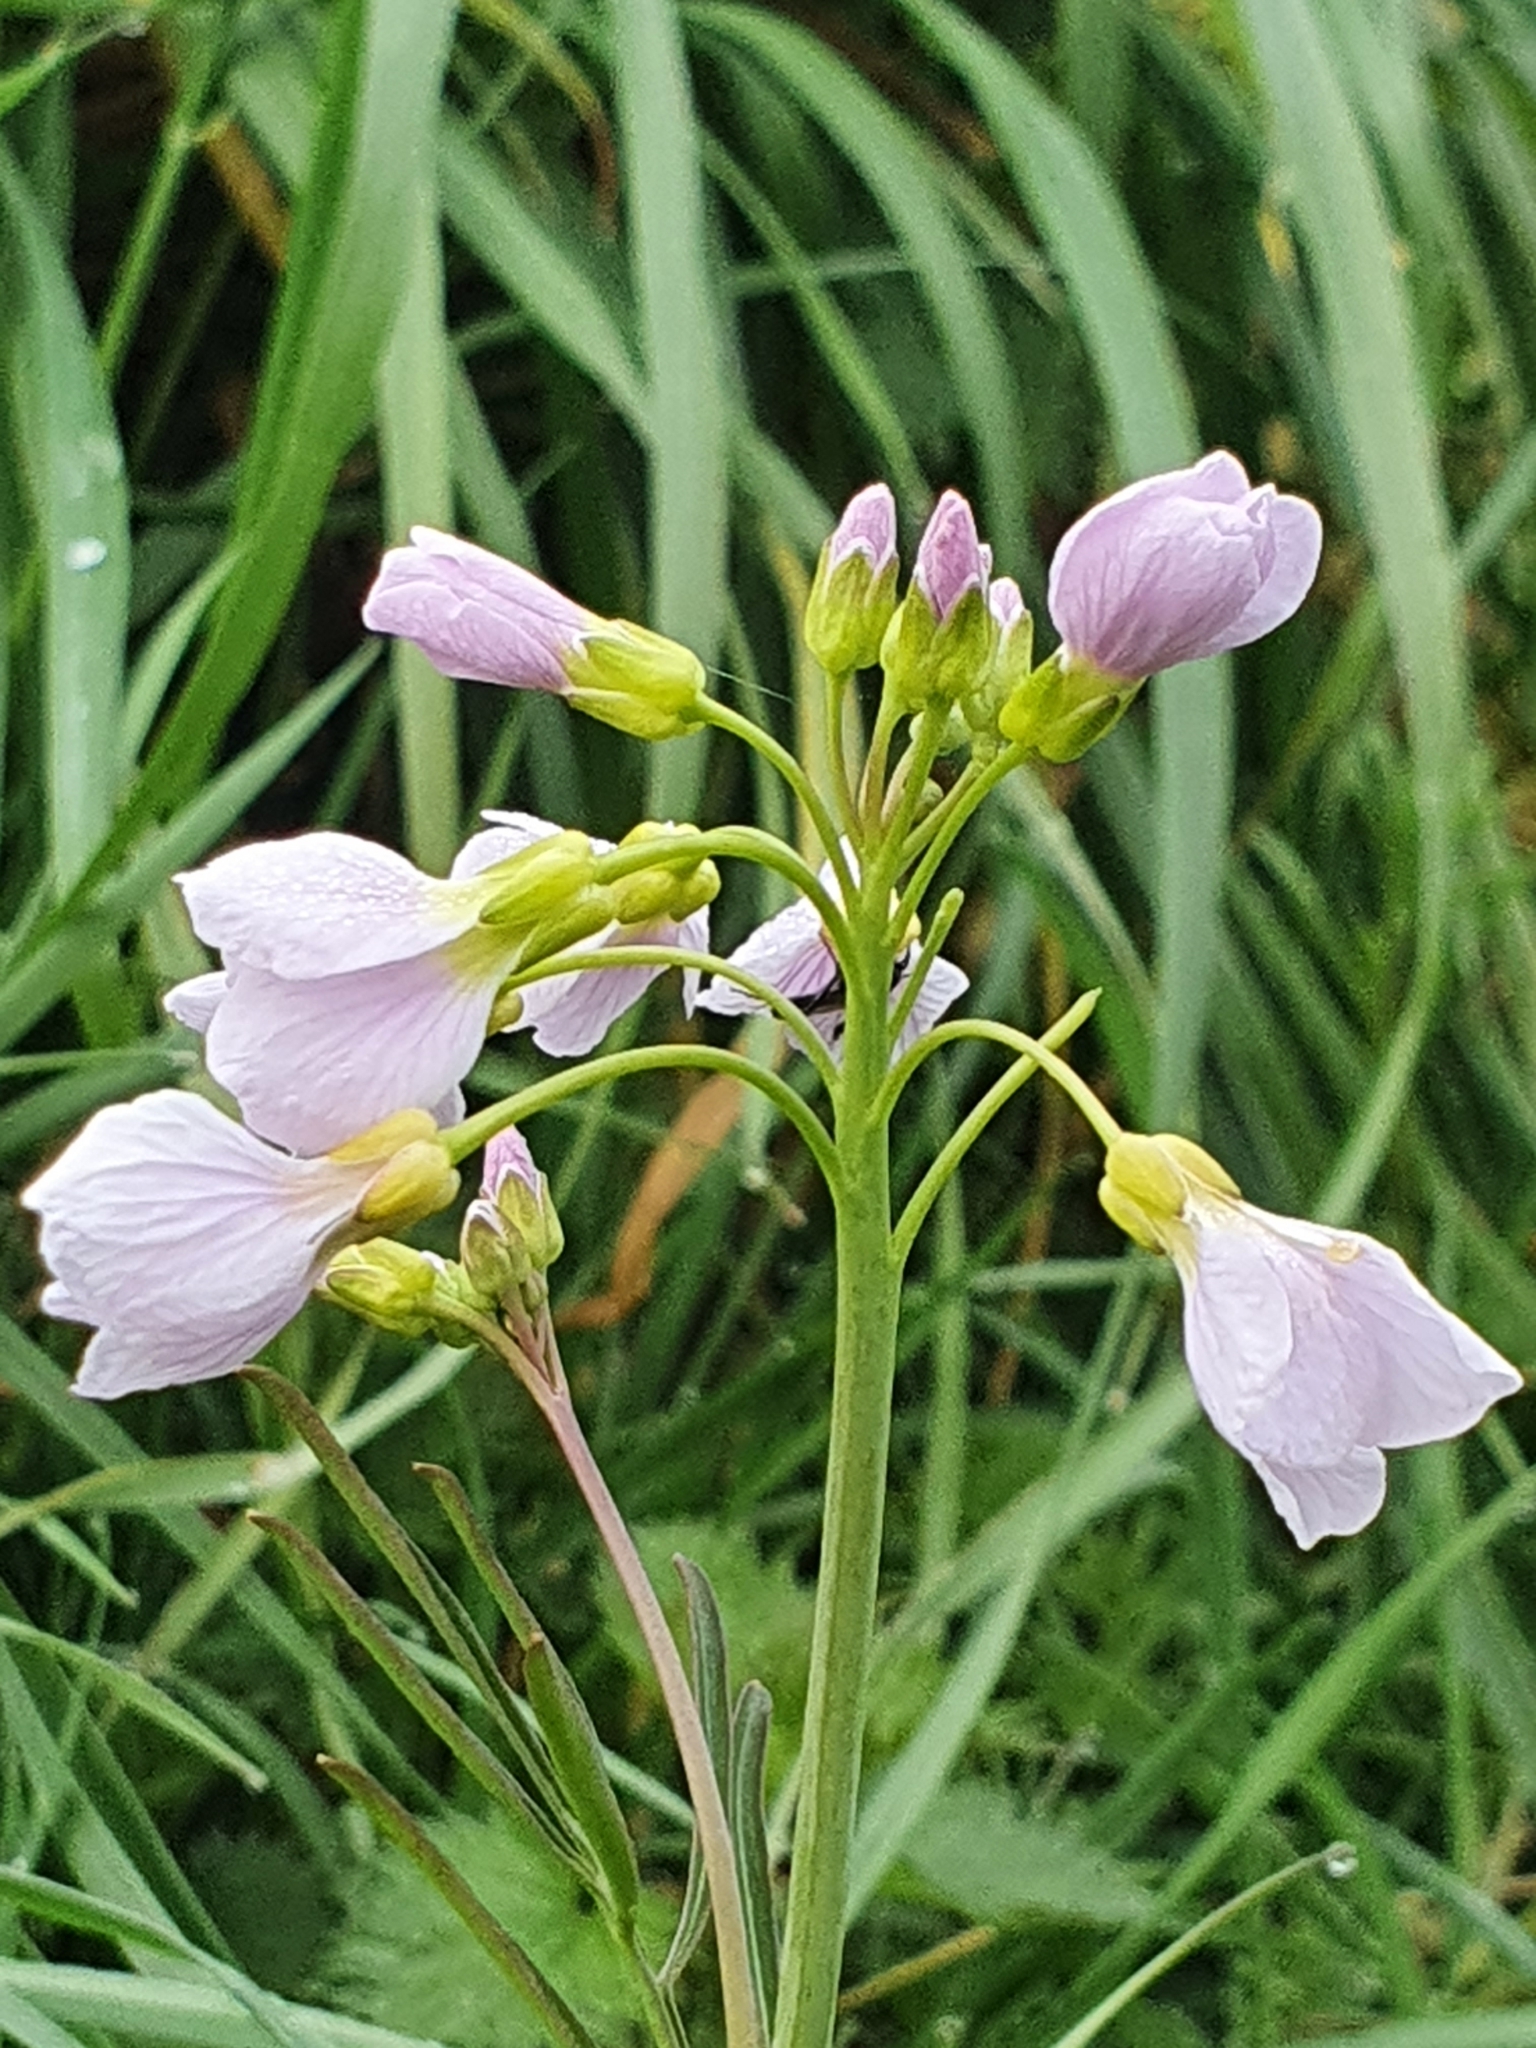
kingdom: Plantae
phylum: Tracheophyta
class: Magnoliopsida
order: Brassicales
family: Brassicaceae
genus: Cardamine
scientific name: Cardamine pratensis
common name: Cuckoo flower
